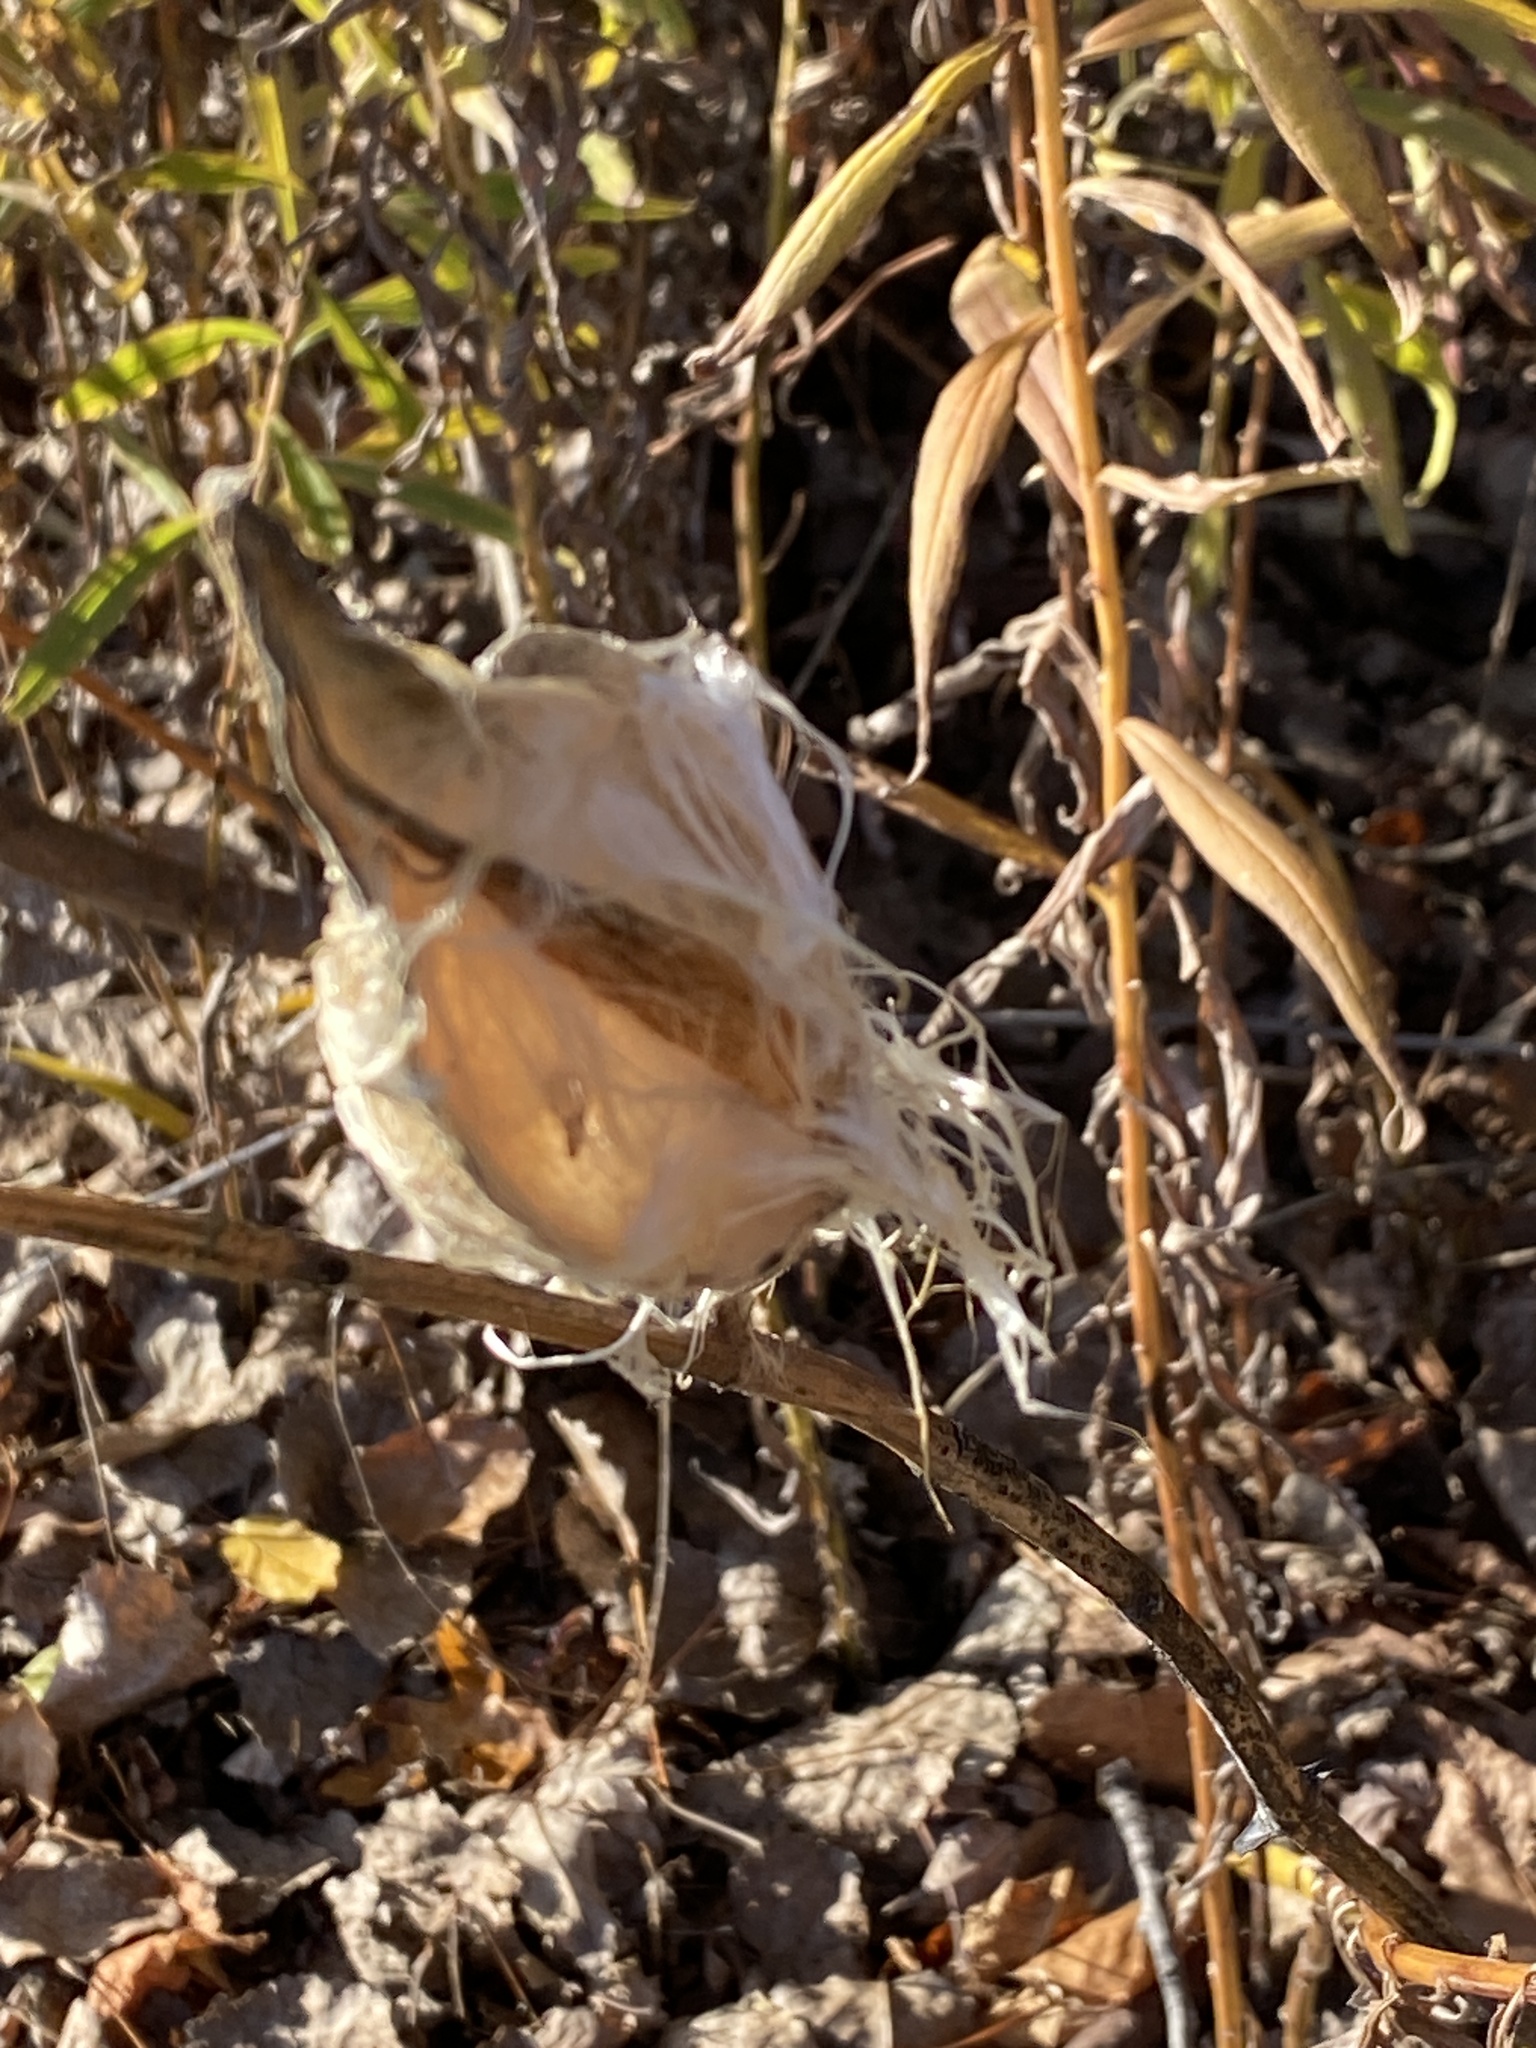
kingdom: Plantae
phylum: Tracheophyta
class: Magnoliopsida
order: Gentianales
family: Apocynaceae
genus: Asclepias
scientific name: Asclepias syriaca
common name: Common milkweed
